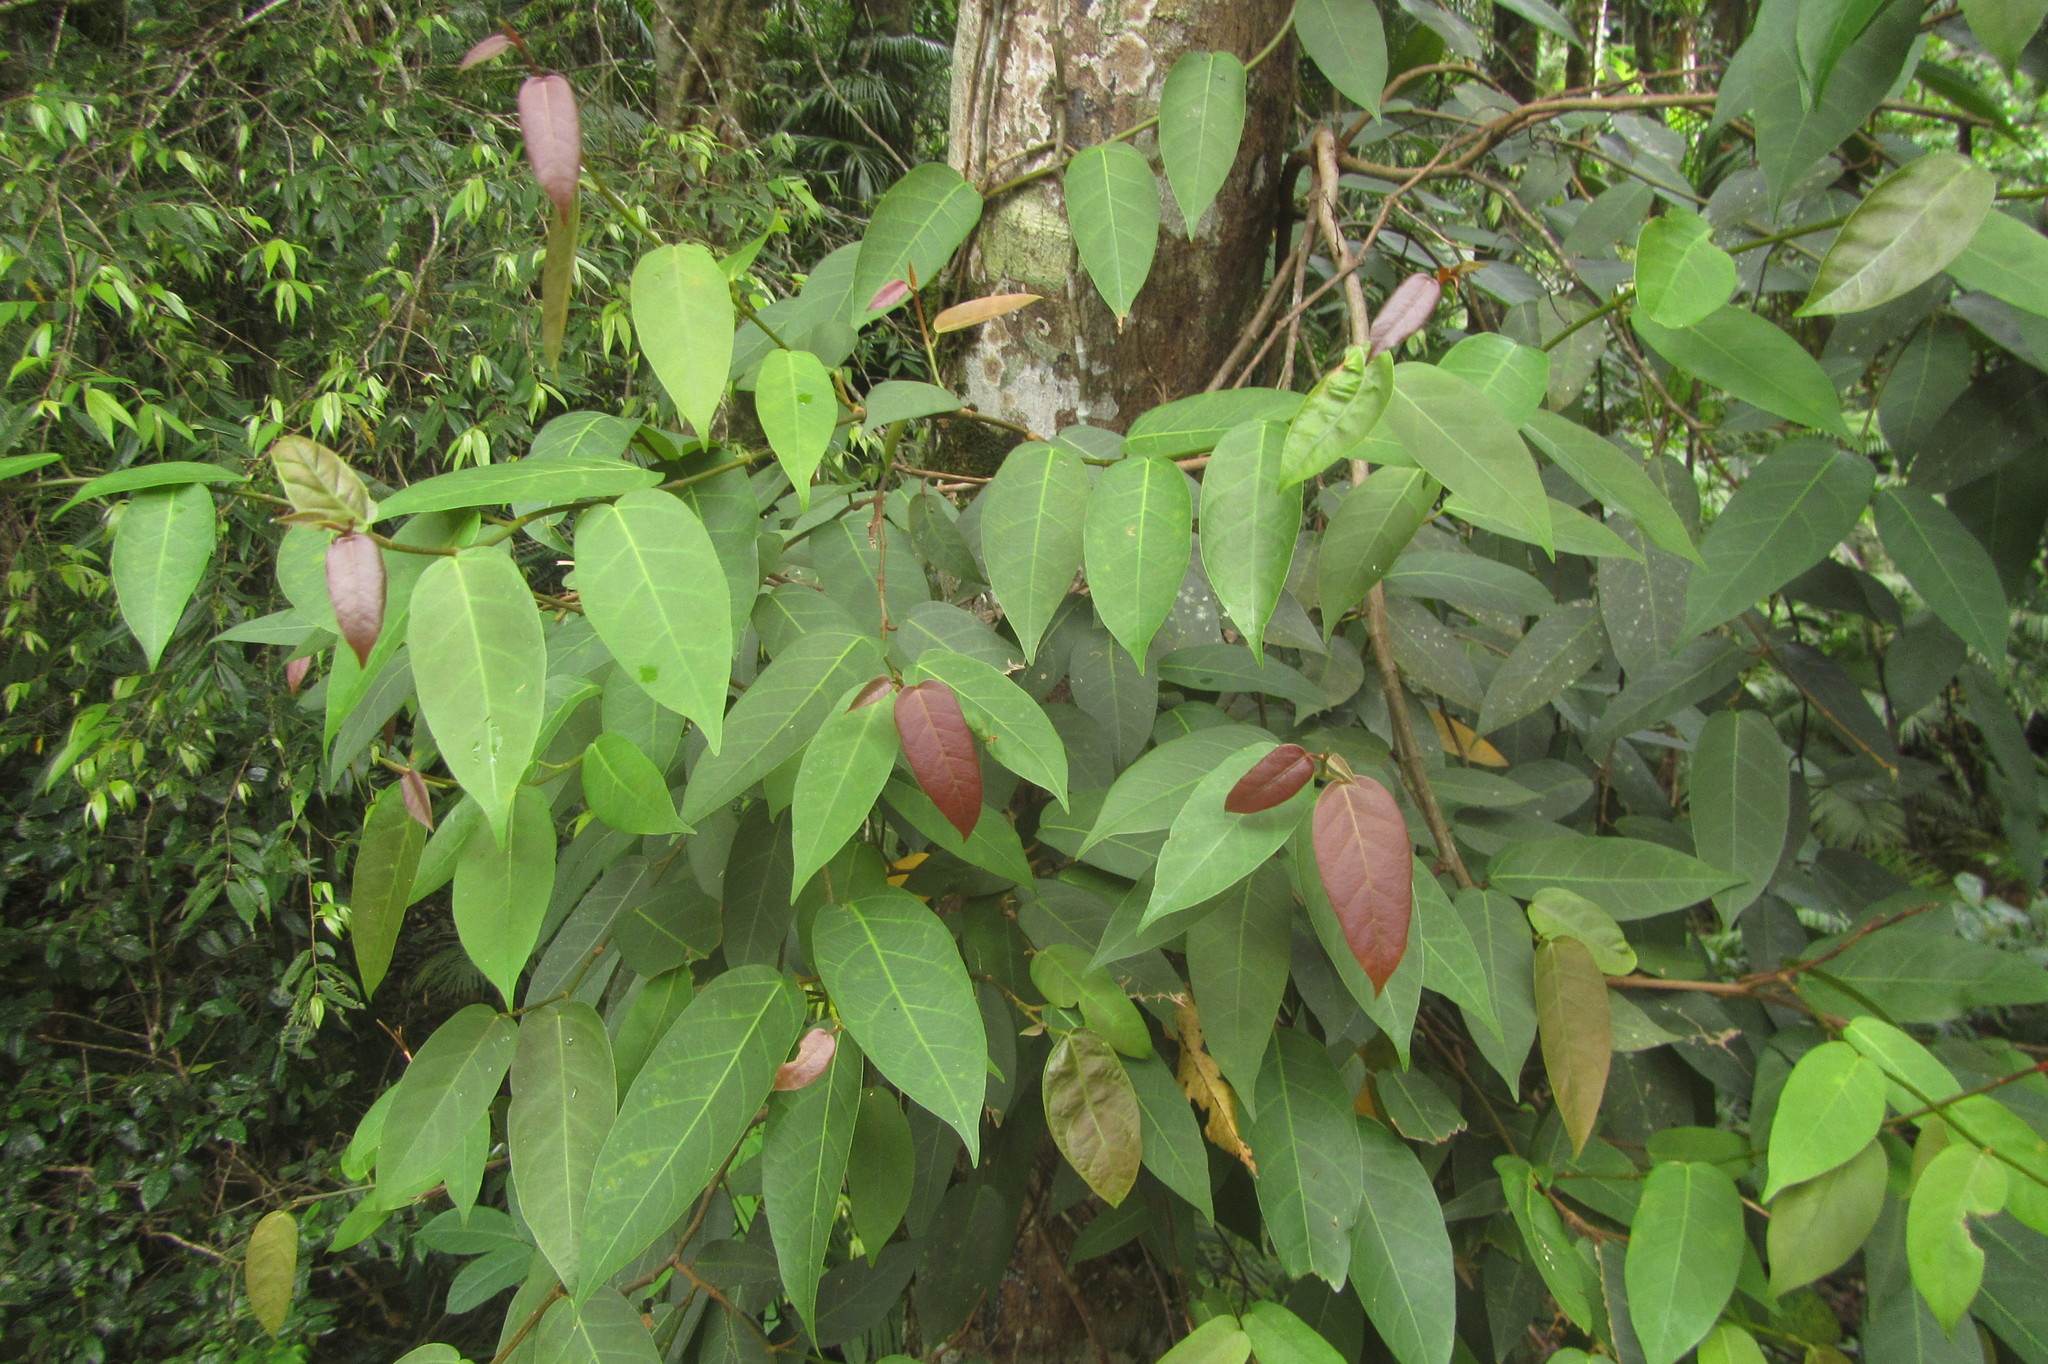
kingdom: Plantae
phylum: Tracheophyta
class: Magnoliopsida
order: Rosales
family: Moraceae
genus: Ficus
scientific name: Ficus pantoniana
